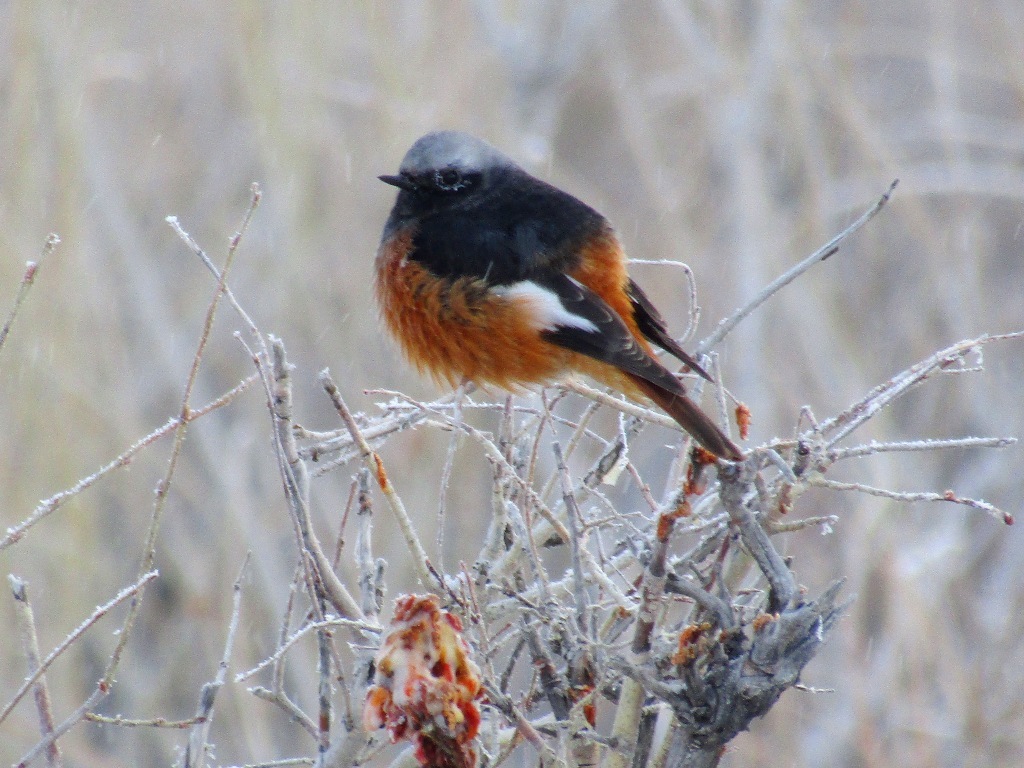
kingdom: Animalia
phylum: Chordata
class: Aves
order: Passeriformes
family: Muscicapidae
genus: Phoenicurus
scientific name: Phoenicurus erythrogastrus
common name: Güldenstädt's redstart
